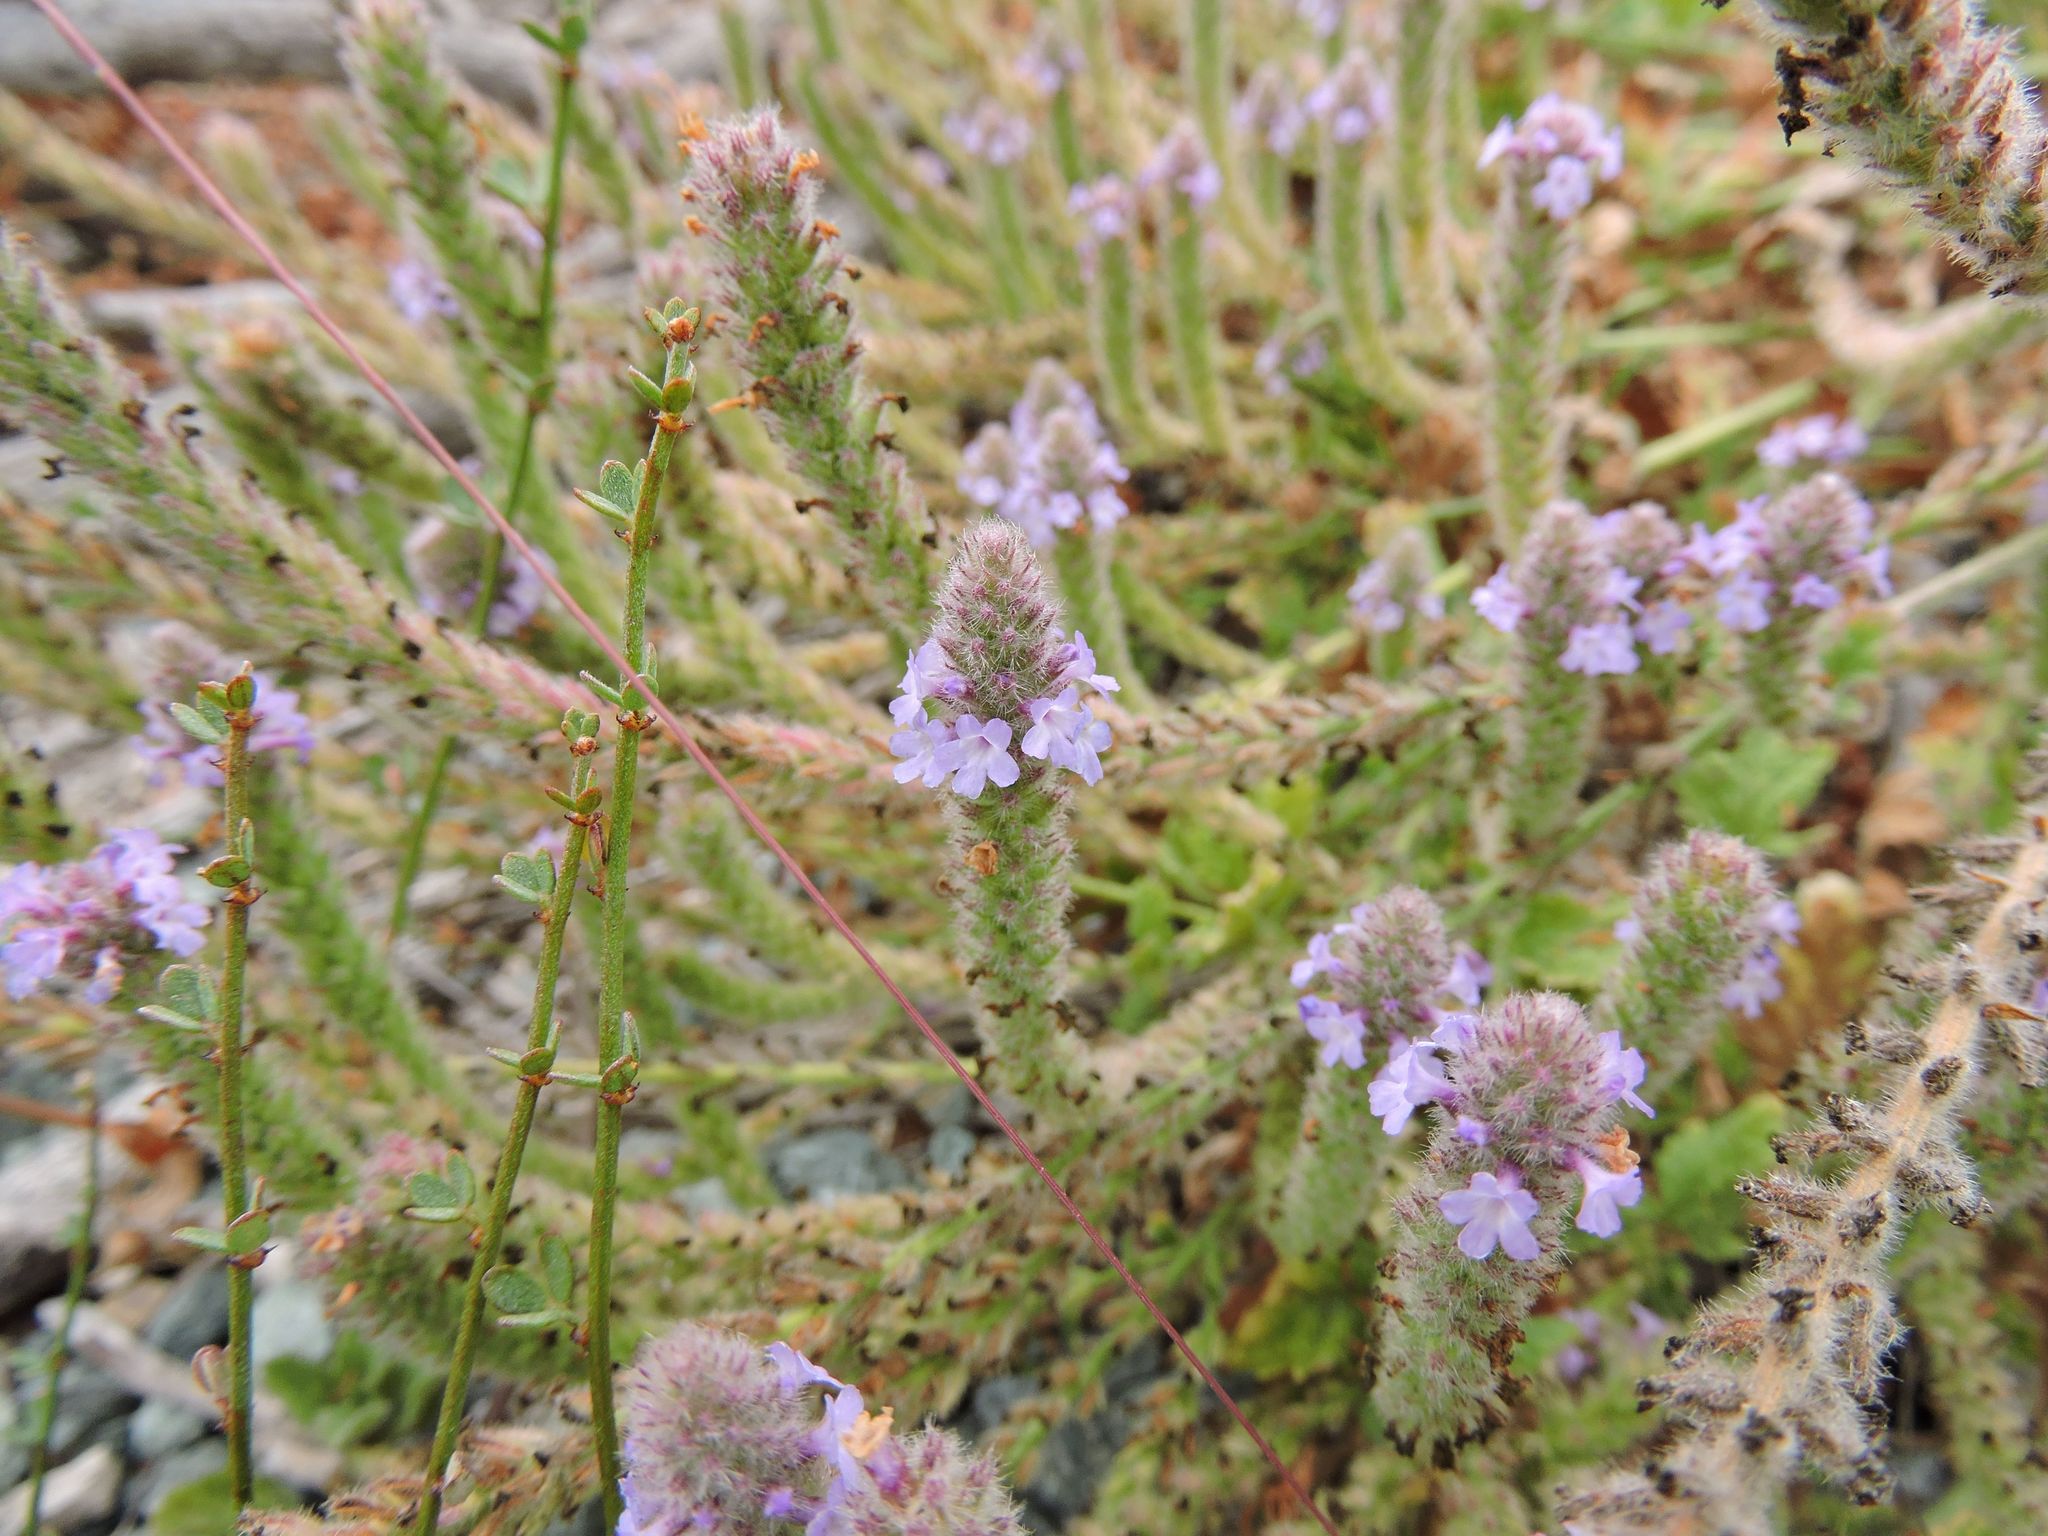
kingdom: Plantae
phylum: Tracheophyta
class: Magnoliopsida
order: Lamiales
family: Verbenaceae
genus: Verbena
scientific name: Verbena lasiostachys
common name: Vervain
